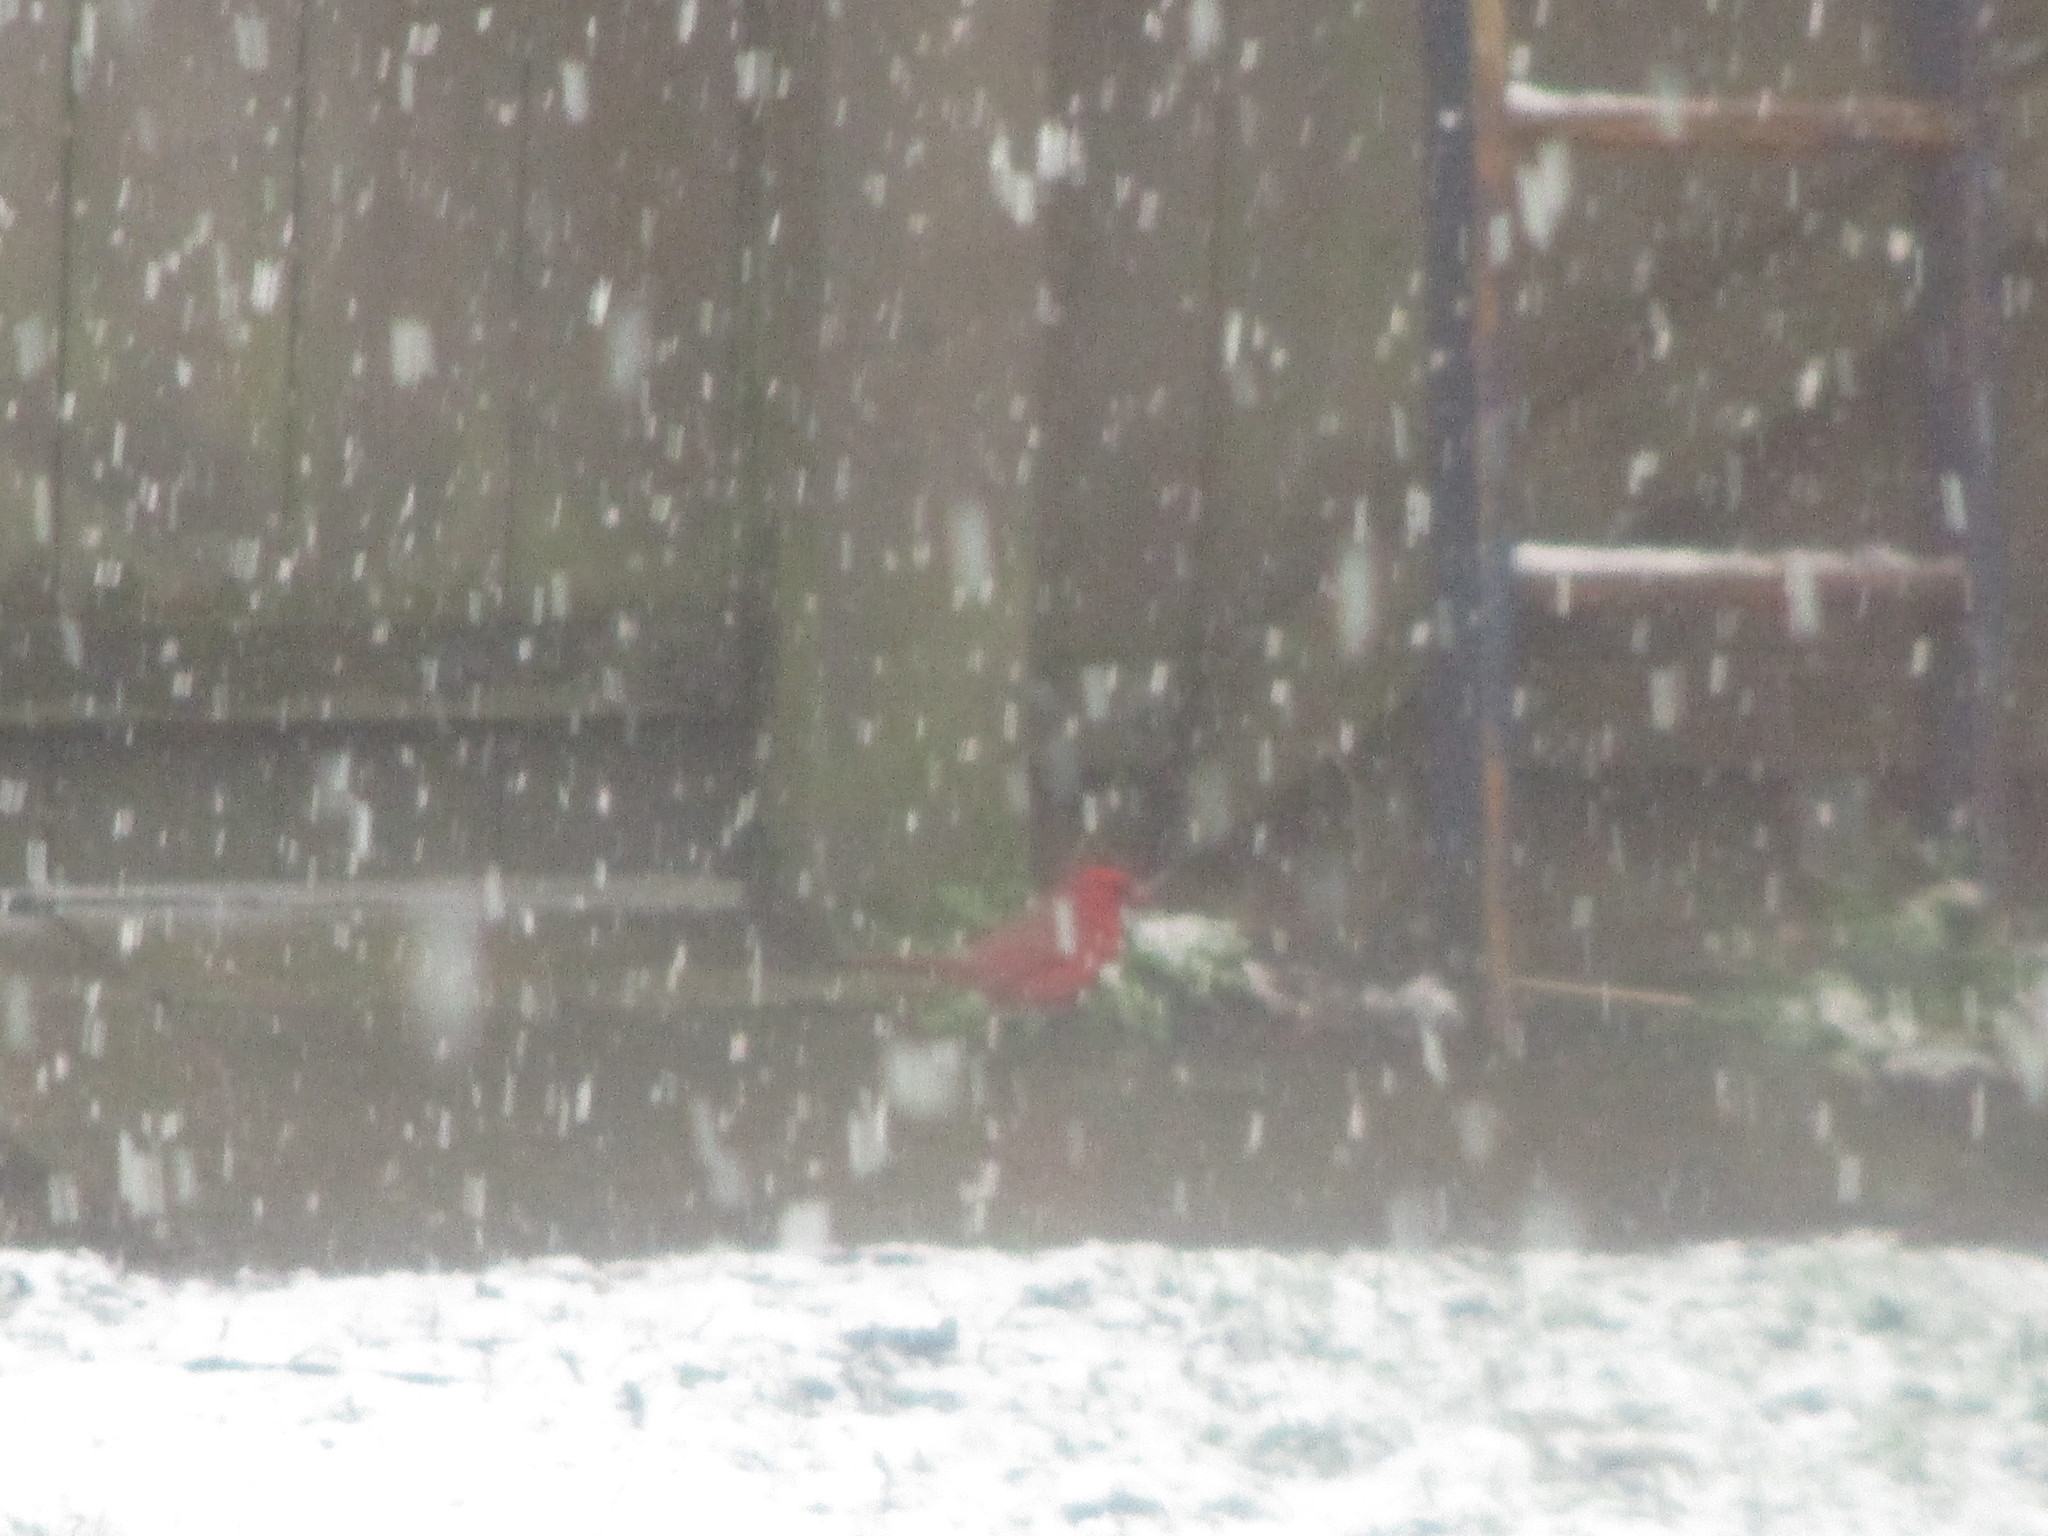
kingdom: Animalia
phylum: Chordata
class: Aves
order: Passeriformes
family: Cardinalidae
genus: Cardinalis
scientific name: Cardinalis cardinalis
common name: Northern cardinal
